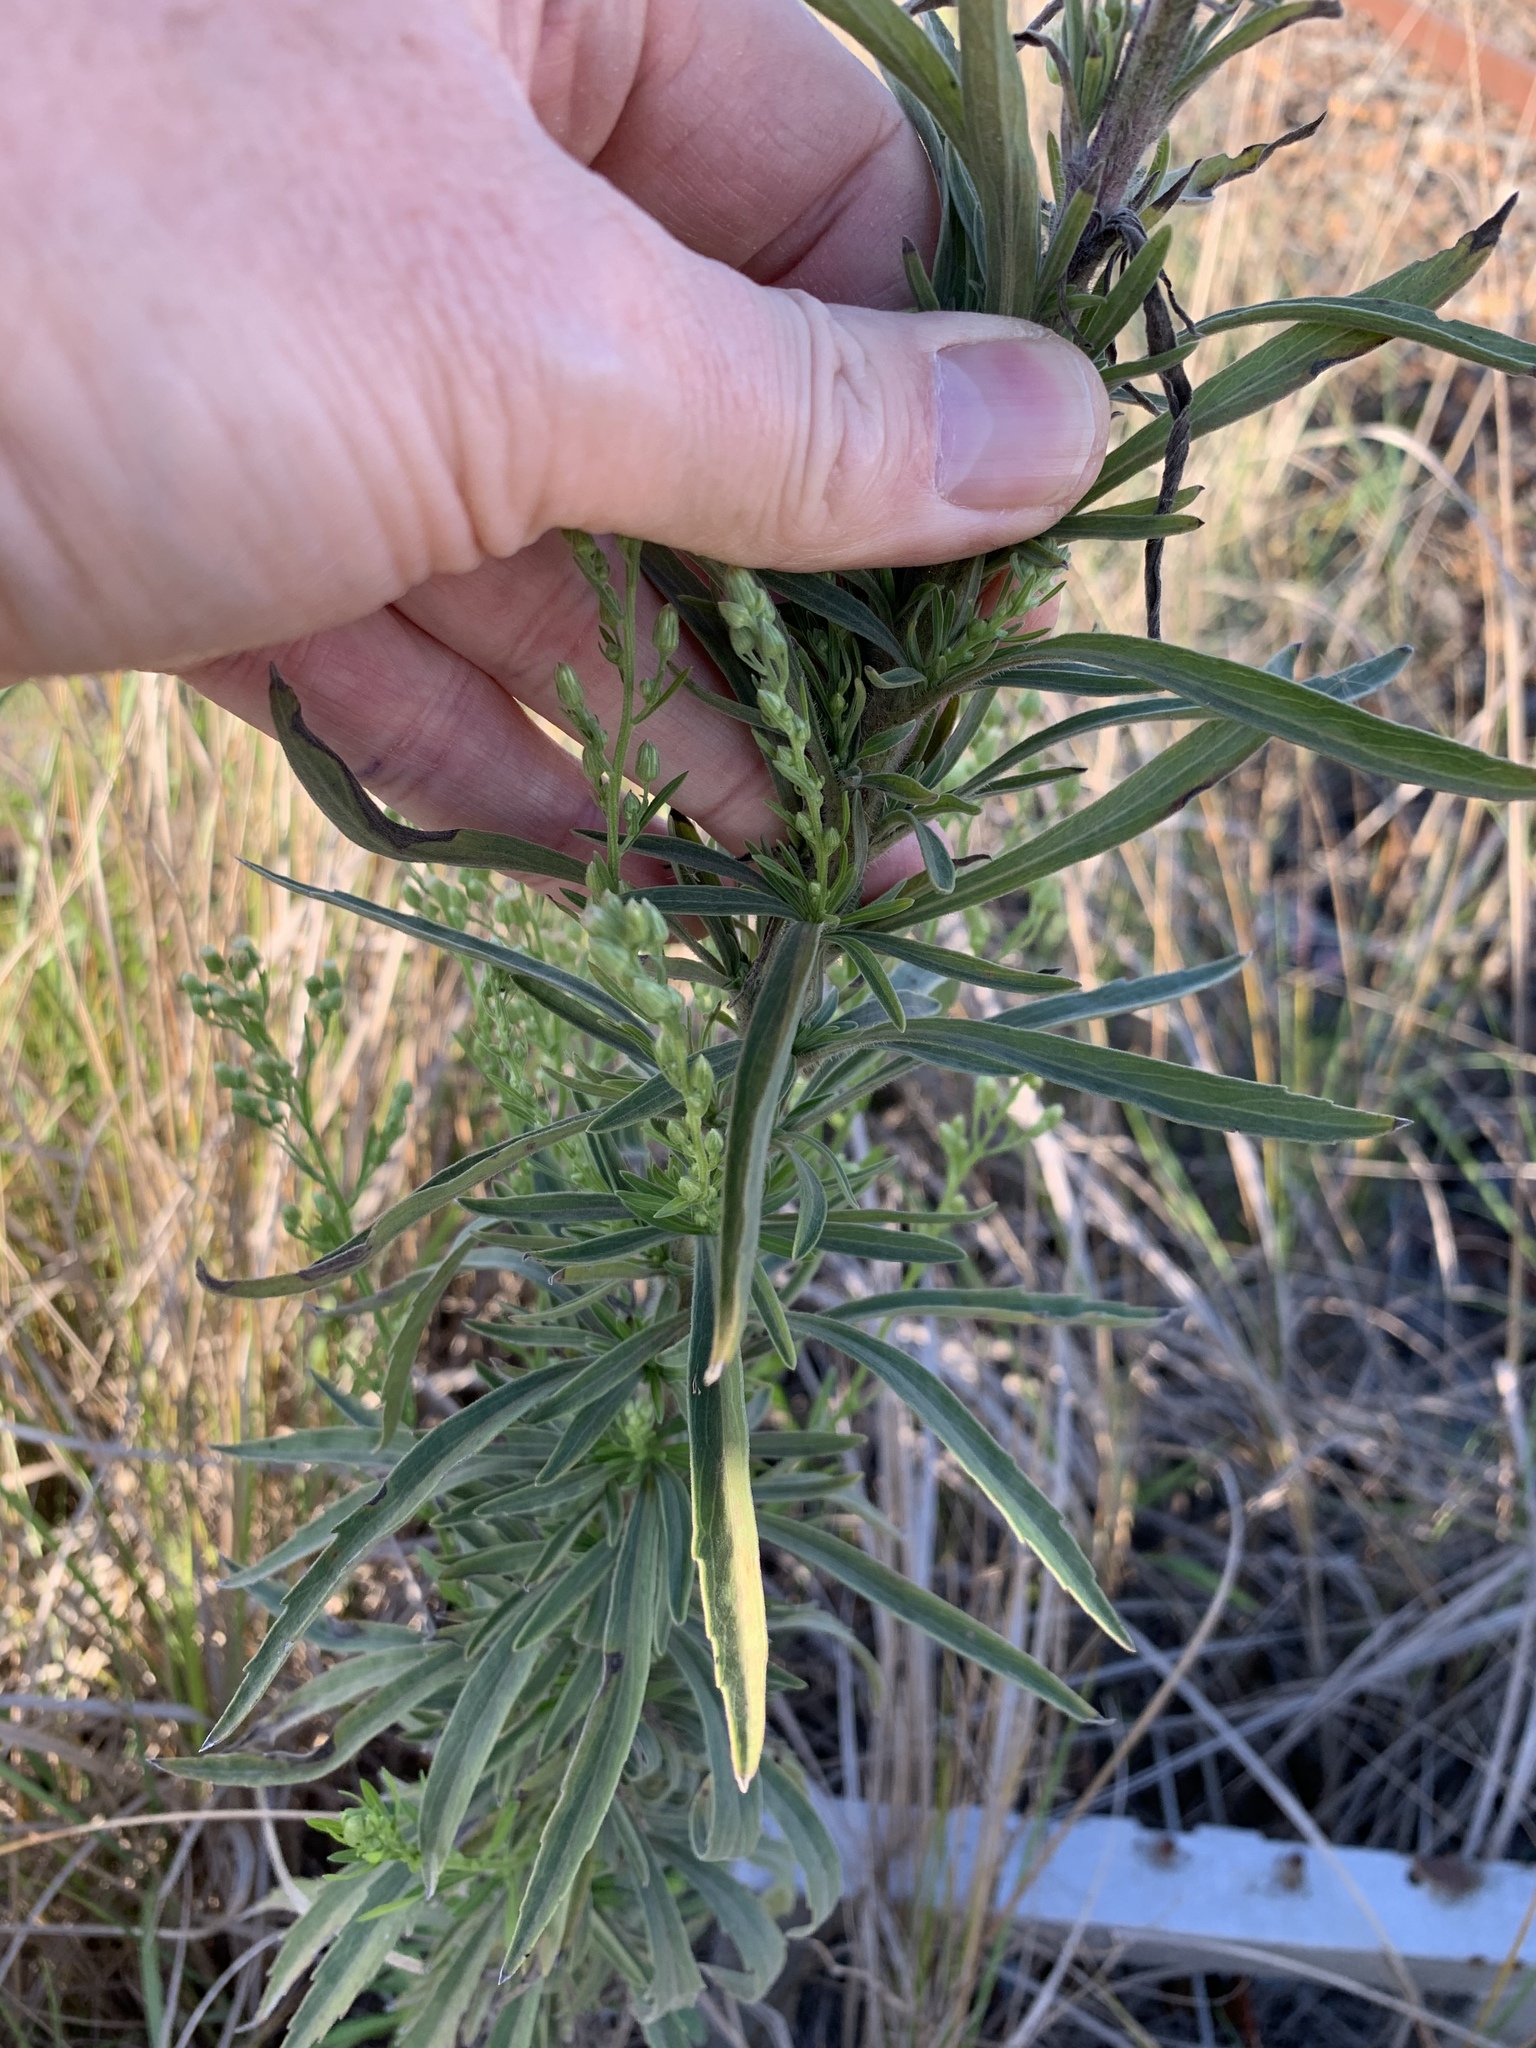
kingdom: Plantae
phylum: Tracheophyta
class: Magnoliopsida
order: Asterales
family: Asteraceae
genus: Erigeron
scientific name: Erigeron sumatrensis
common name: Daisy
